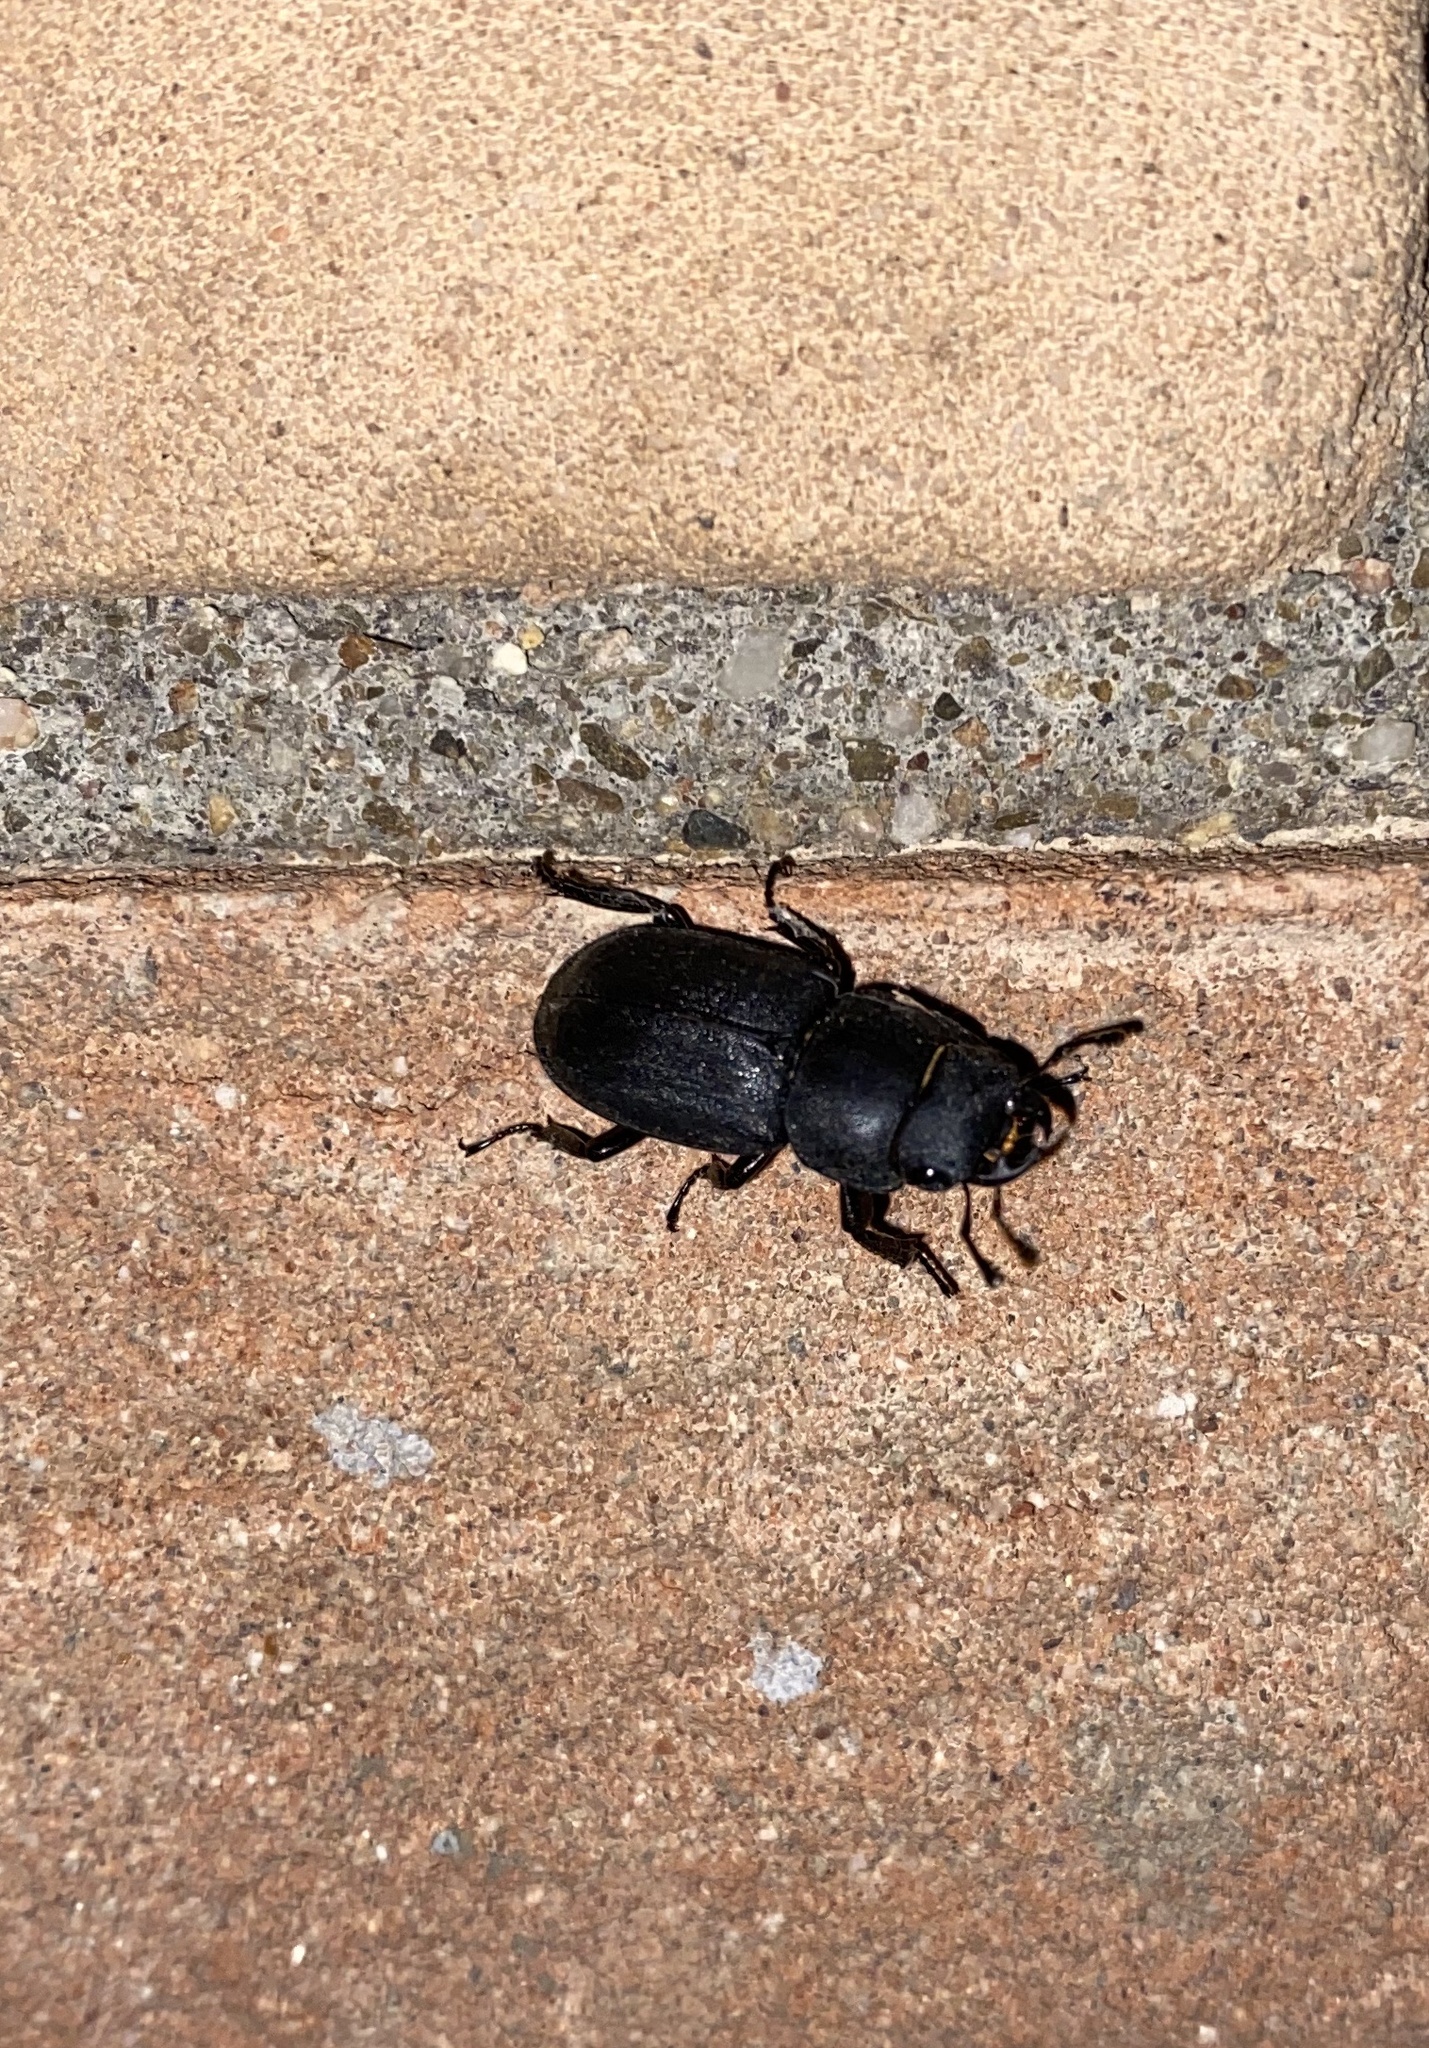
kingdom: Animalia
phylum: Arthropoda
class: Insecta
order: Coleoptera
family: Lucanidae
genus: Dorcus
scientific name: Dorcus parallelipipedus
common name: Lesser stag beetle
